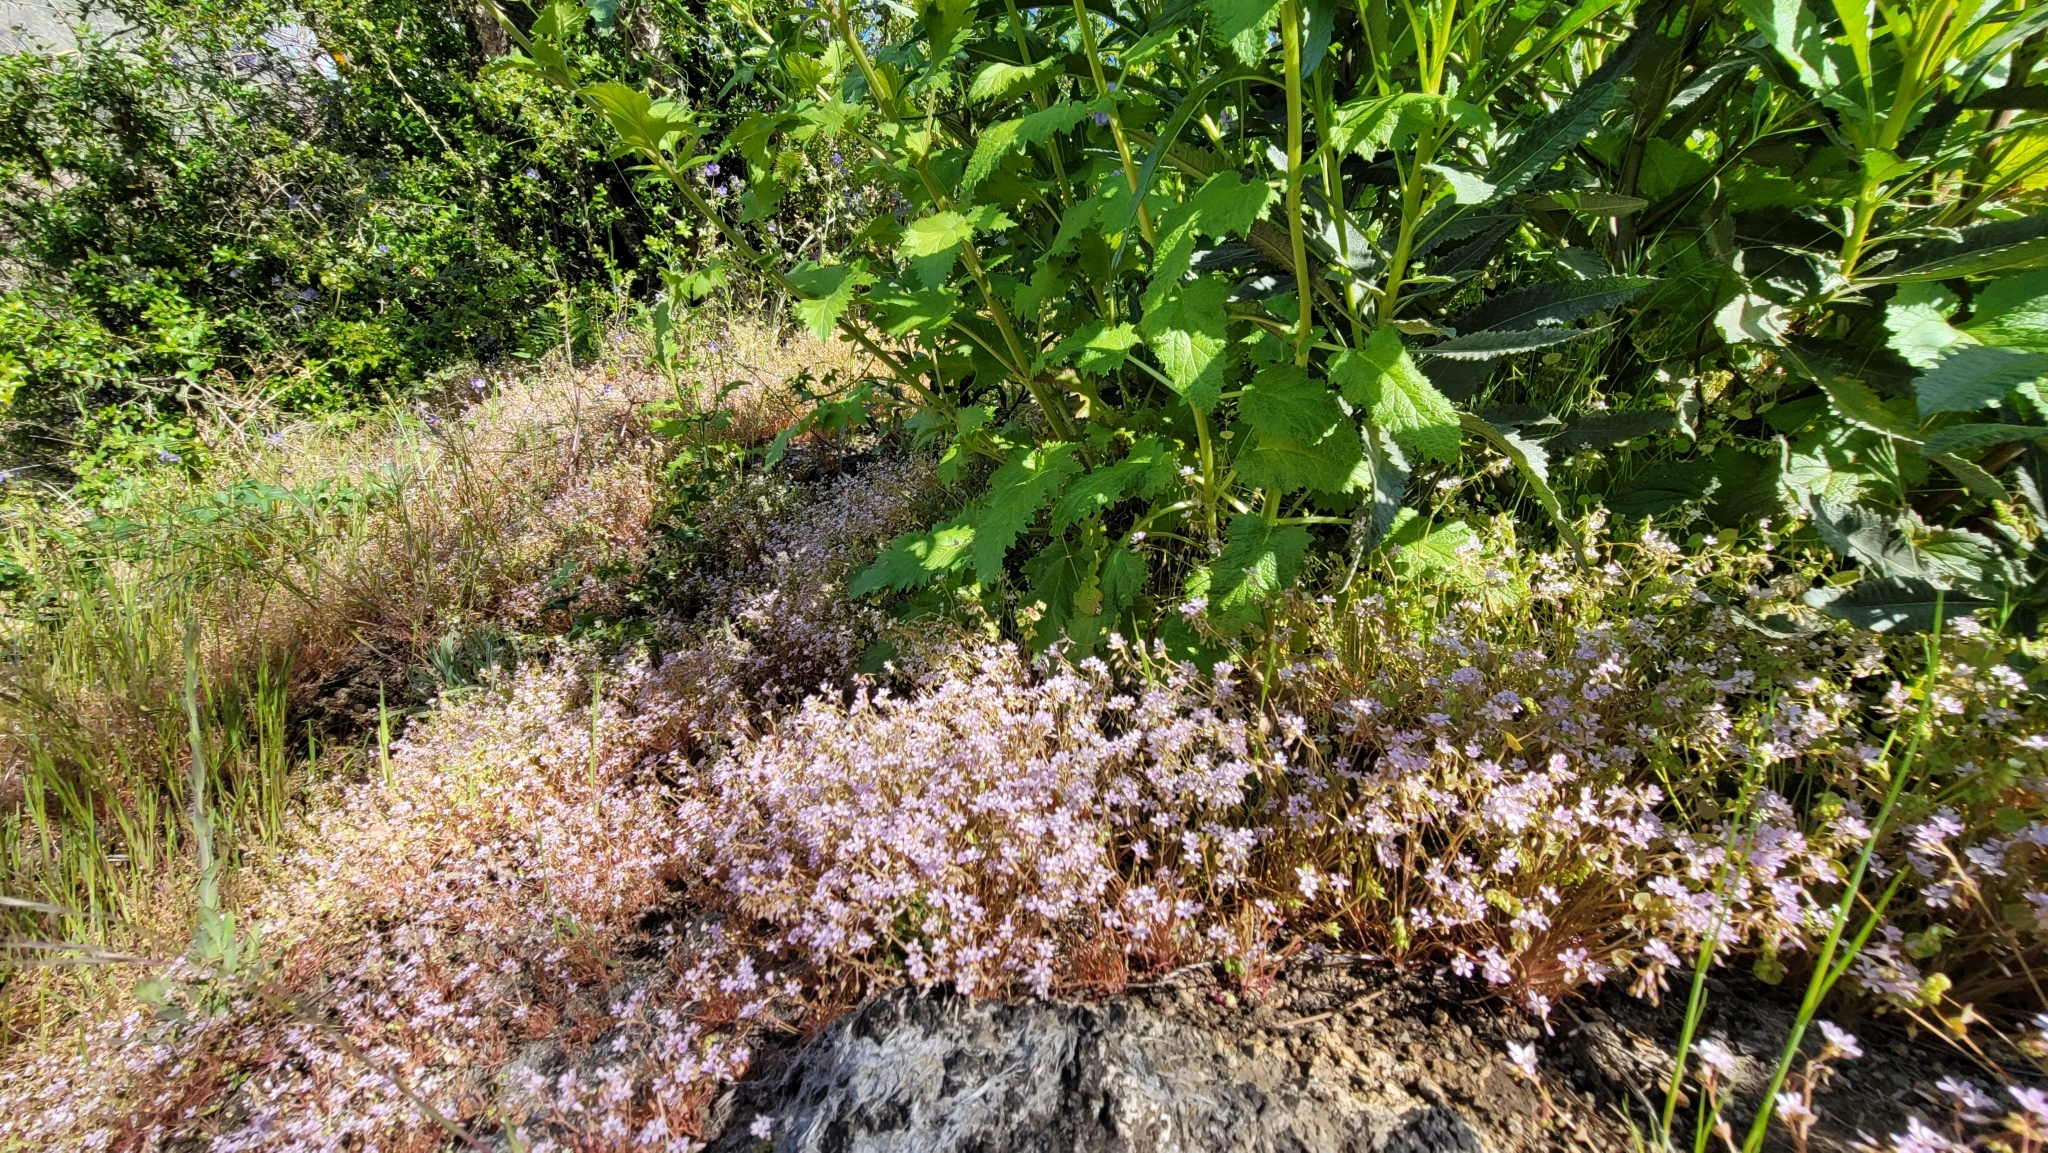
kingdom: Plantae
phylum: Tracheophyta
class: Magnoliopsida
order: Caryophyllales
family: Montiaceae
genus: Claytonia
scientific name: Claytonia parviflora
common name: Indian-lettuce
